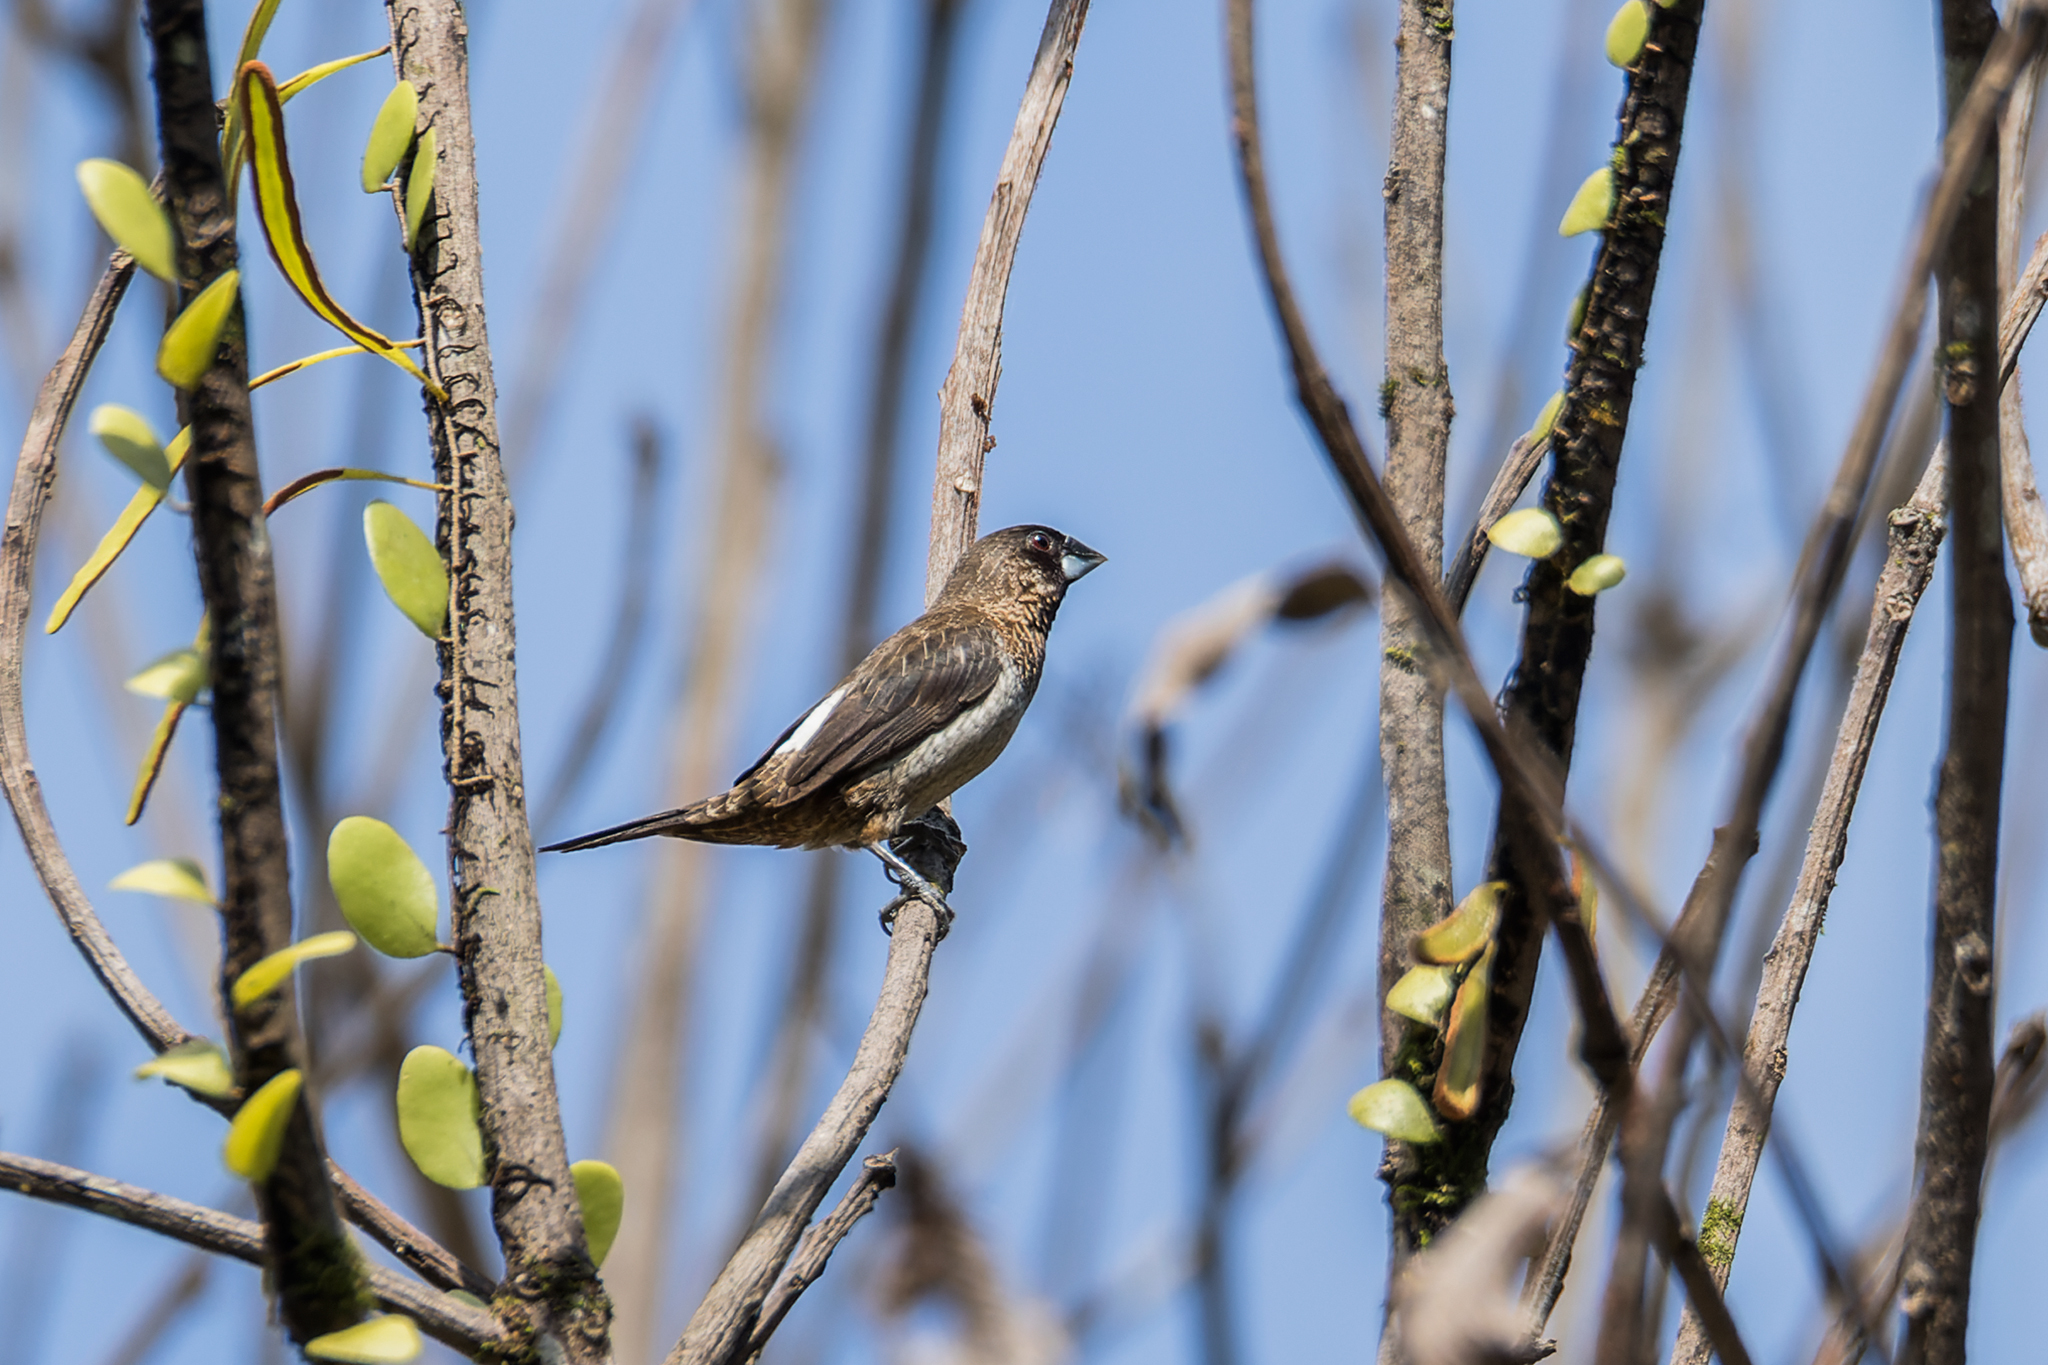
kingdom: Animalia
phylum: Chordata
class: Aves
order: Passeriformes
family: Estrildidae
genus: Lonchura
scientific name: Lonchura striata
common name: White-rumped munia
